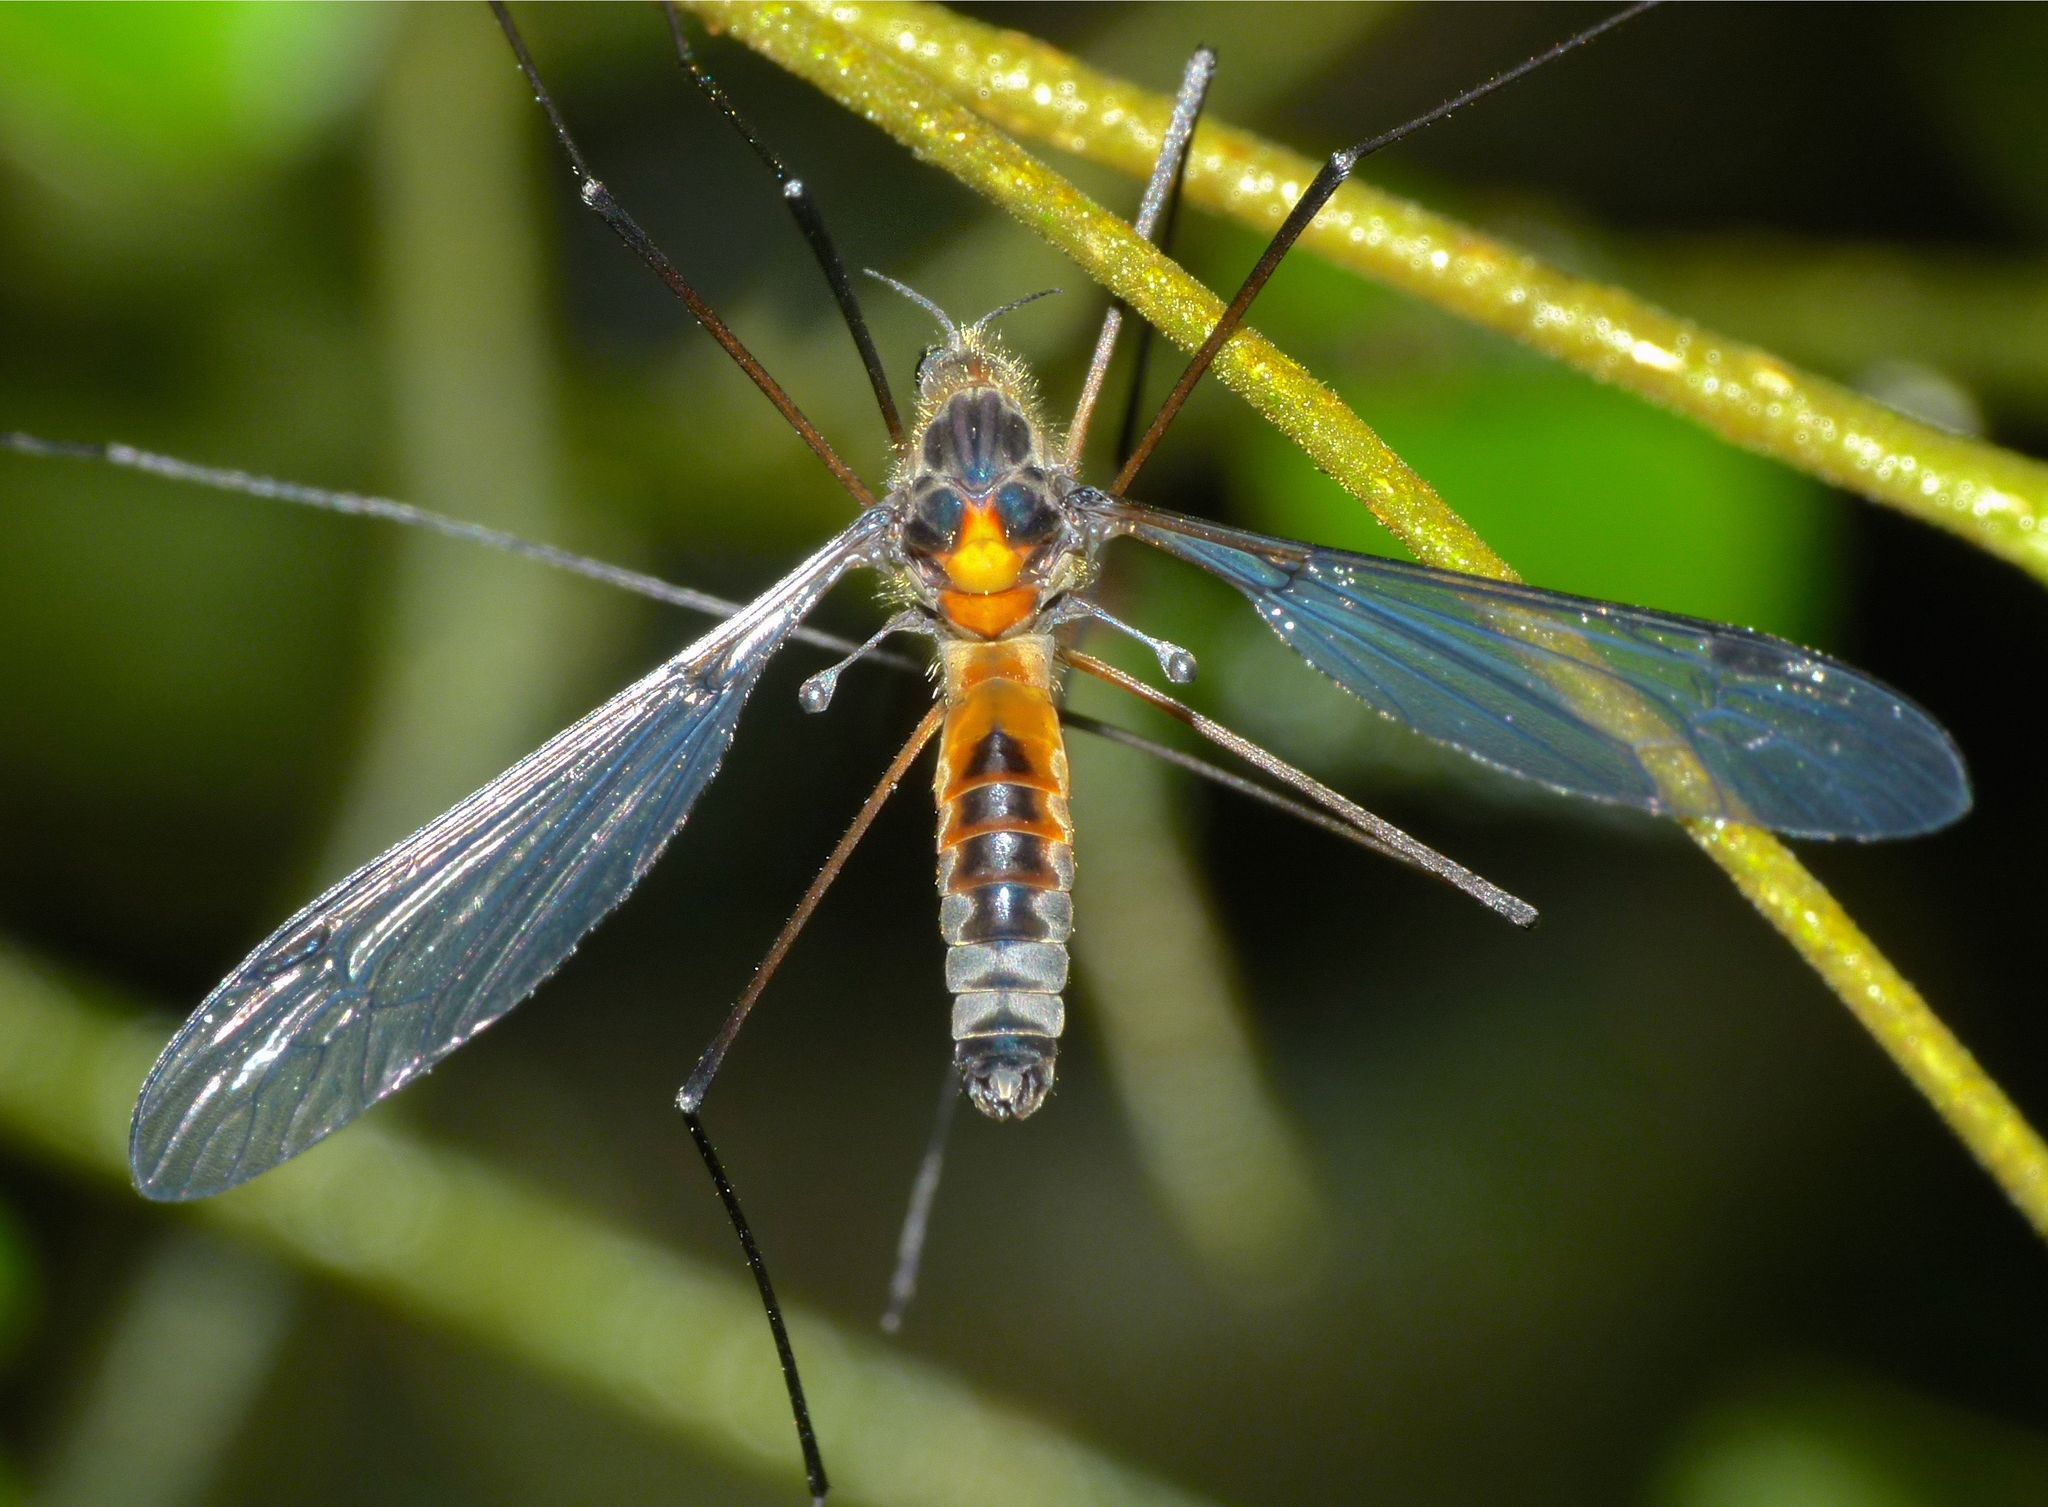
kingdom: Animalia
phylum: Arthropoda
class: Insecta
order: Diptera
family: Tipulidae
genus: Leptotarsus
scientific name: Leptotarsus fucatus
